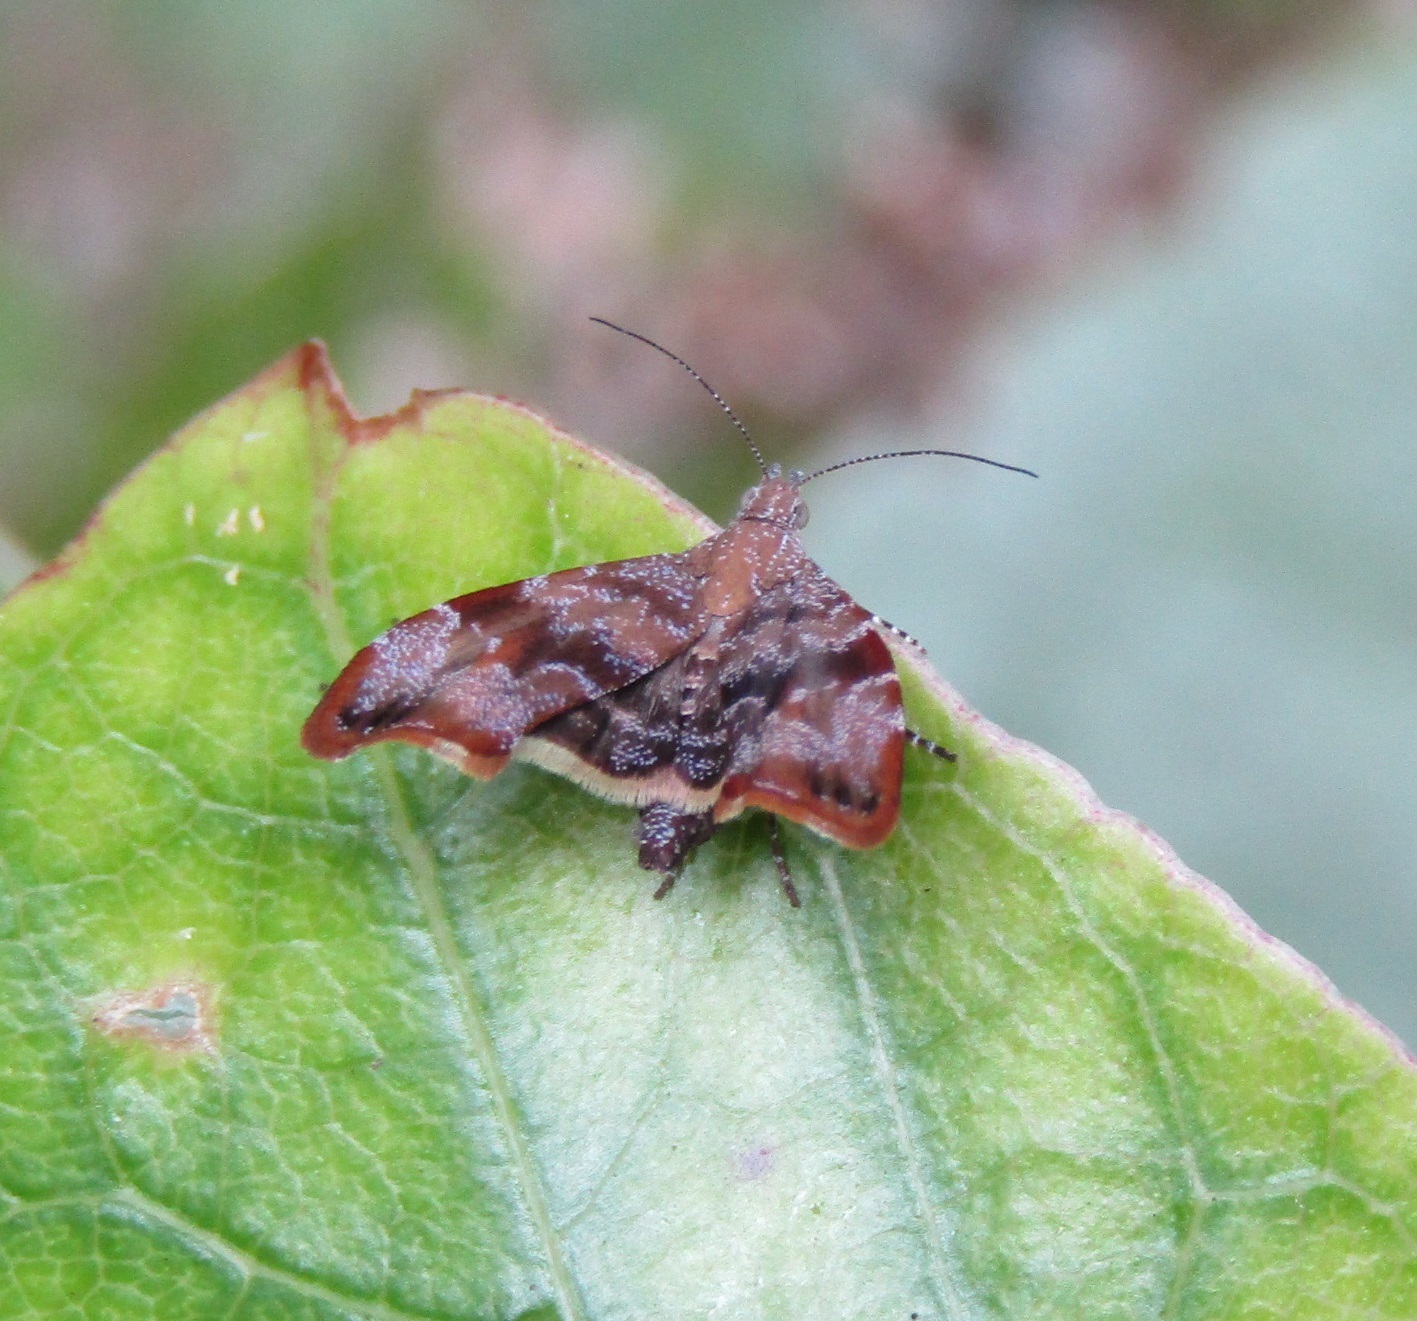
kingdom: Animalia
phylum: Arthropoda
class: Insecta
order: Lepidoptera
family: Choreutidae
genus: Asterivora
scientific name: Asterivora colpota
